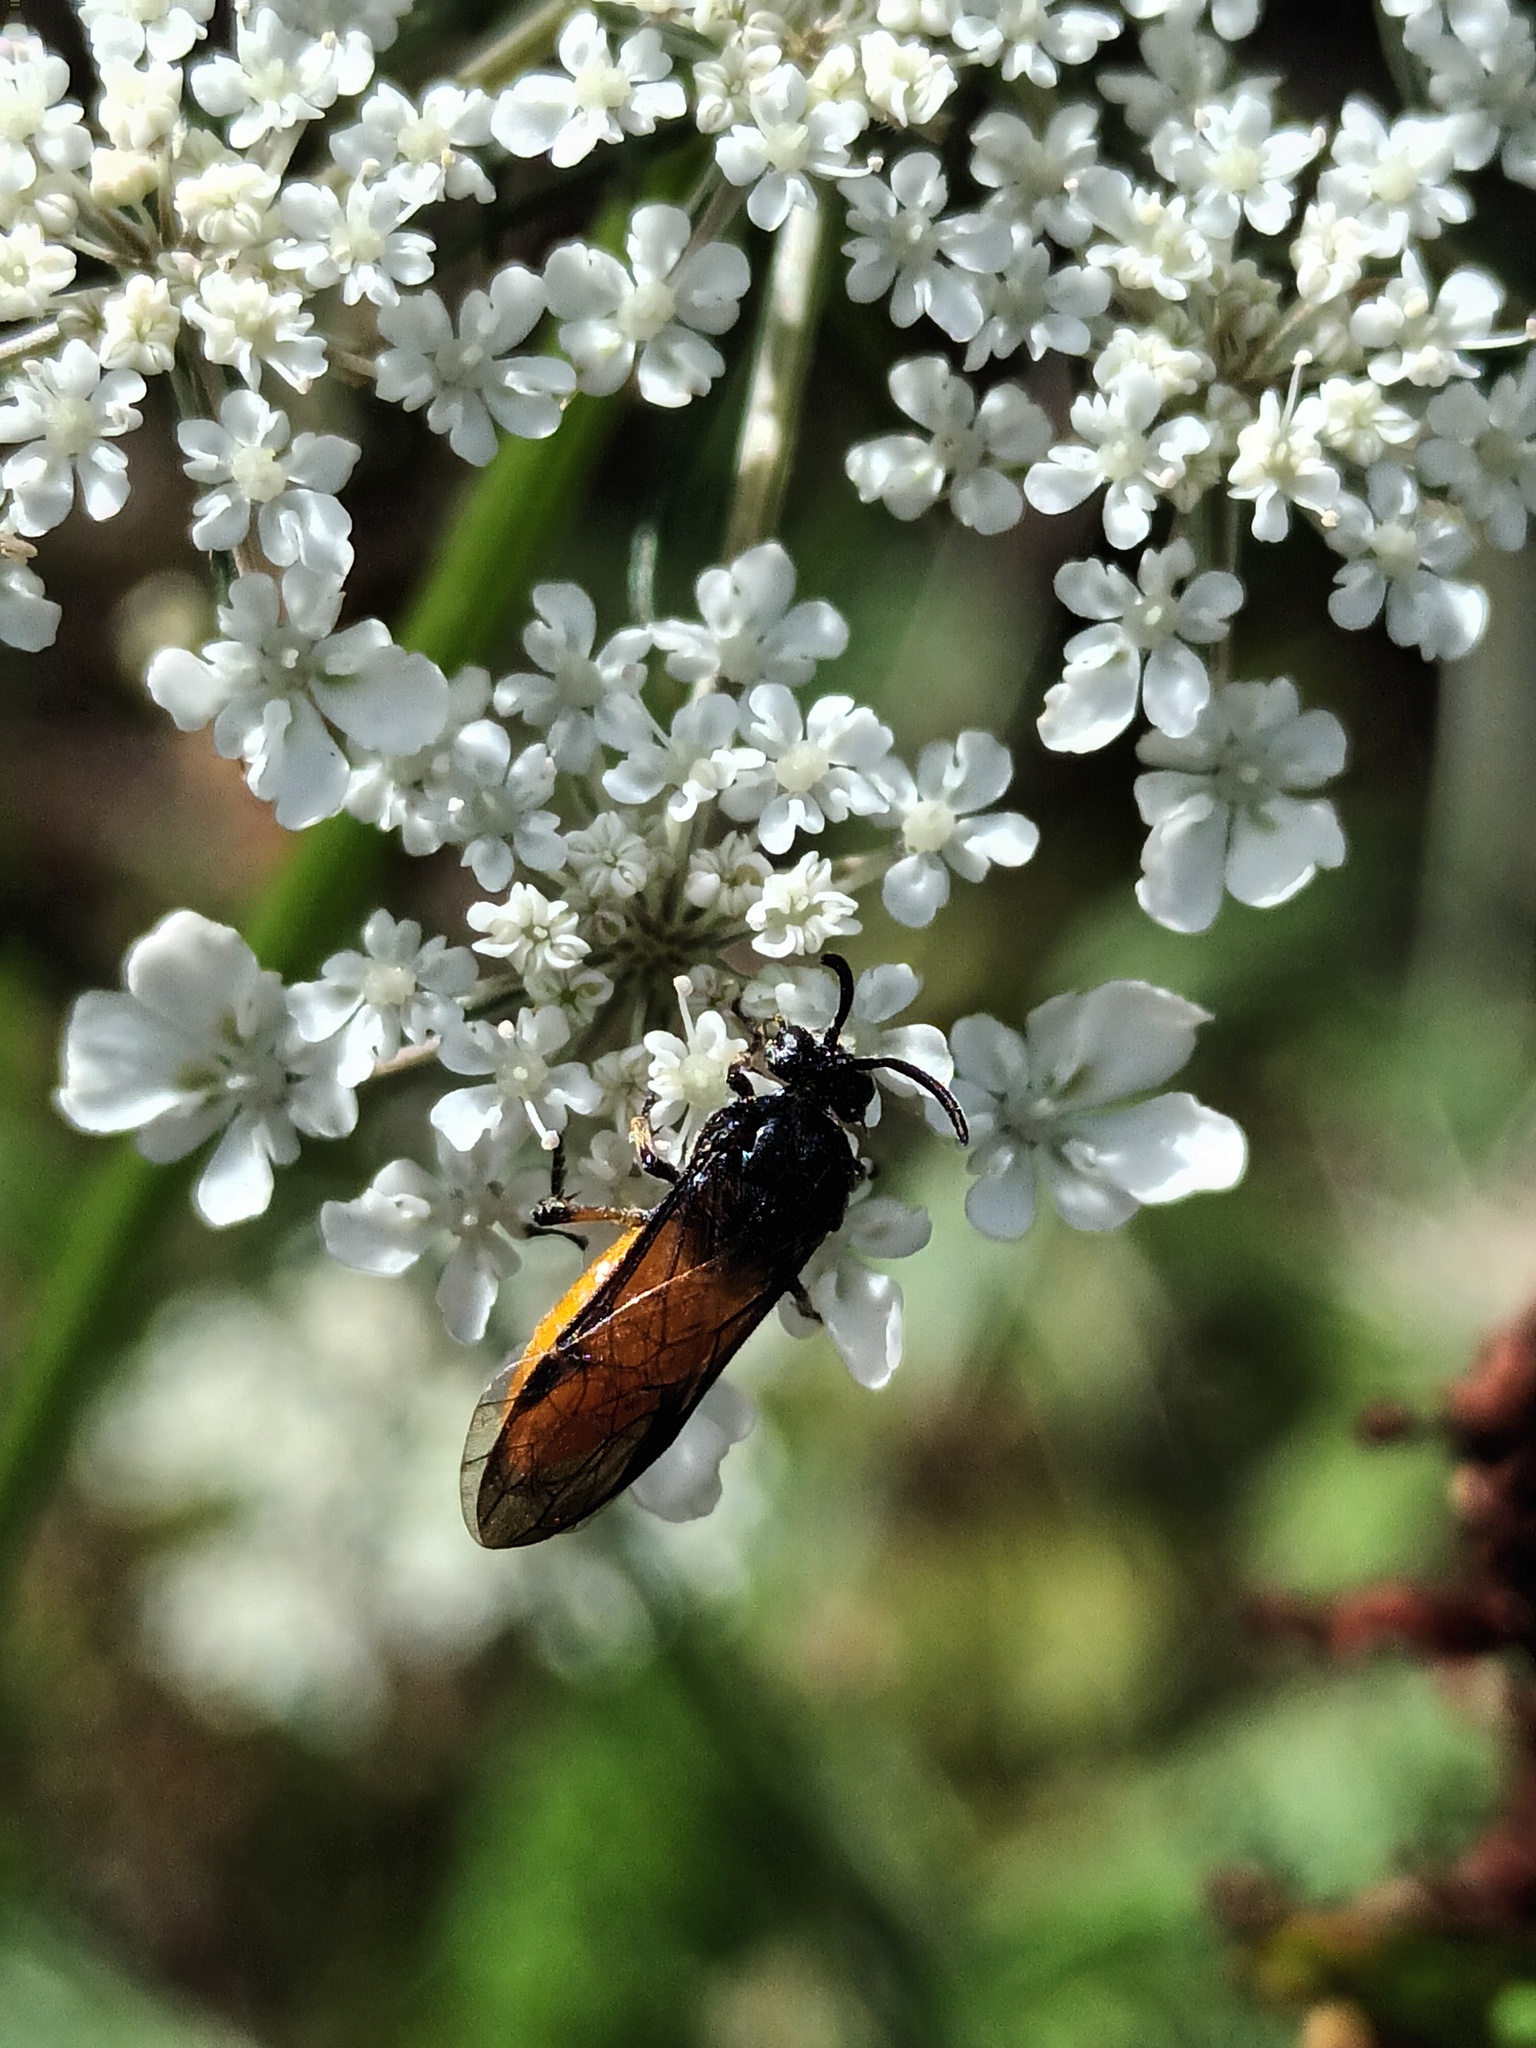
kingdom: Animalia
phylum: Arthropoda
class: Insecta
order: Hymenoptera
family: Argidae
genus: Arge
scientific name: Arge pagana
